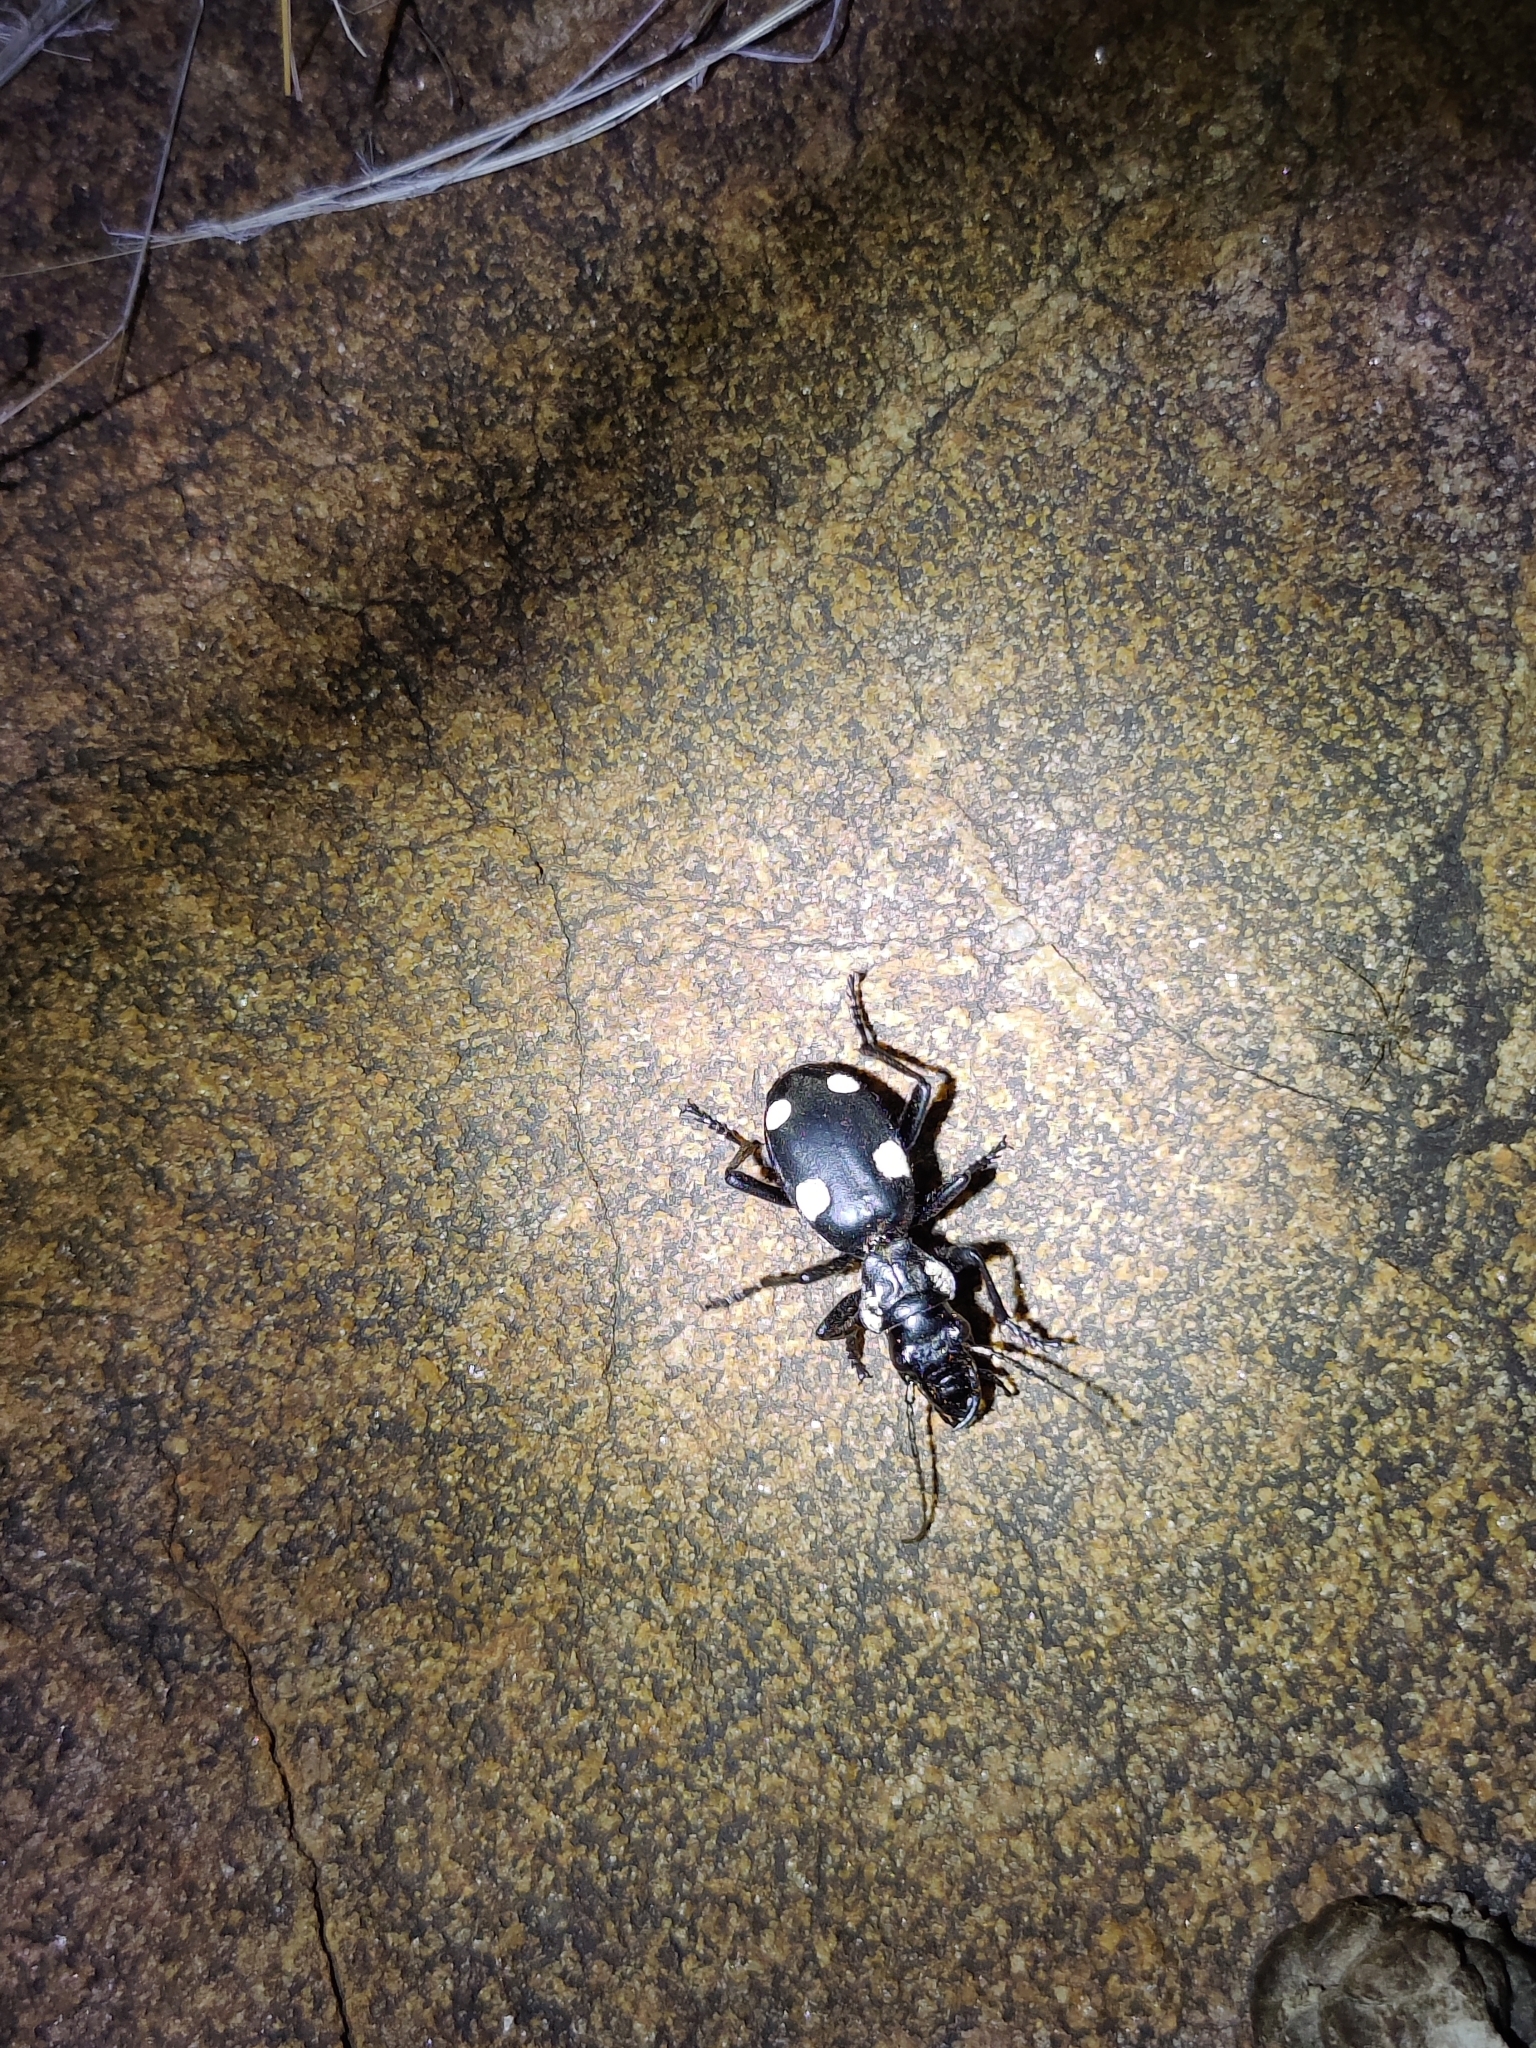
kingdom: Animalia
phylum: Arthropoda
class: Insecta
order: Coleoptera
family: Carabidae
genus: Anthia
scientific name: Anthia sexguttata
